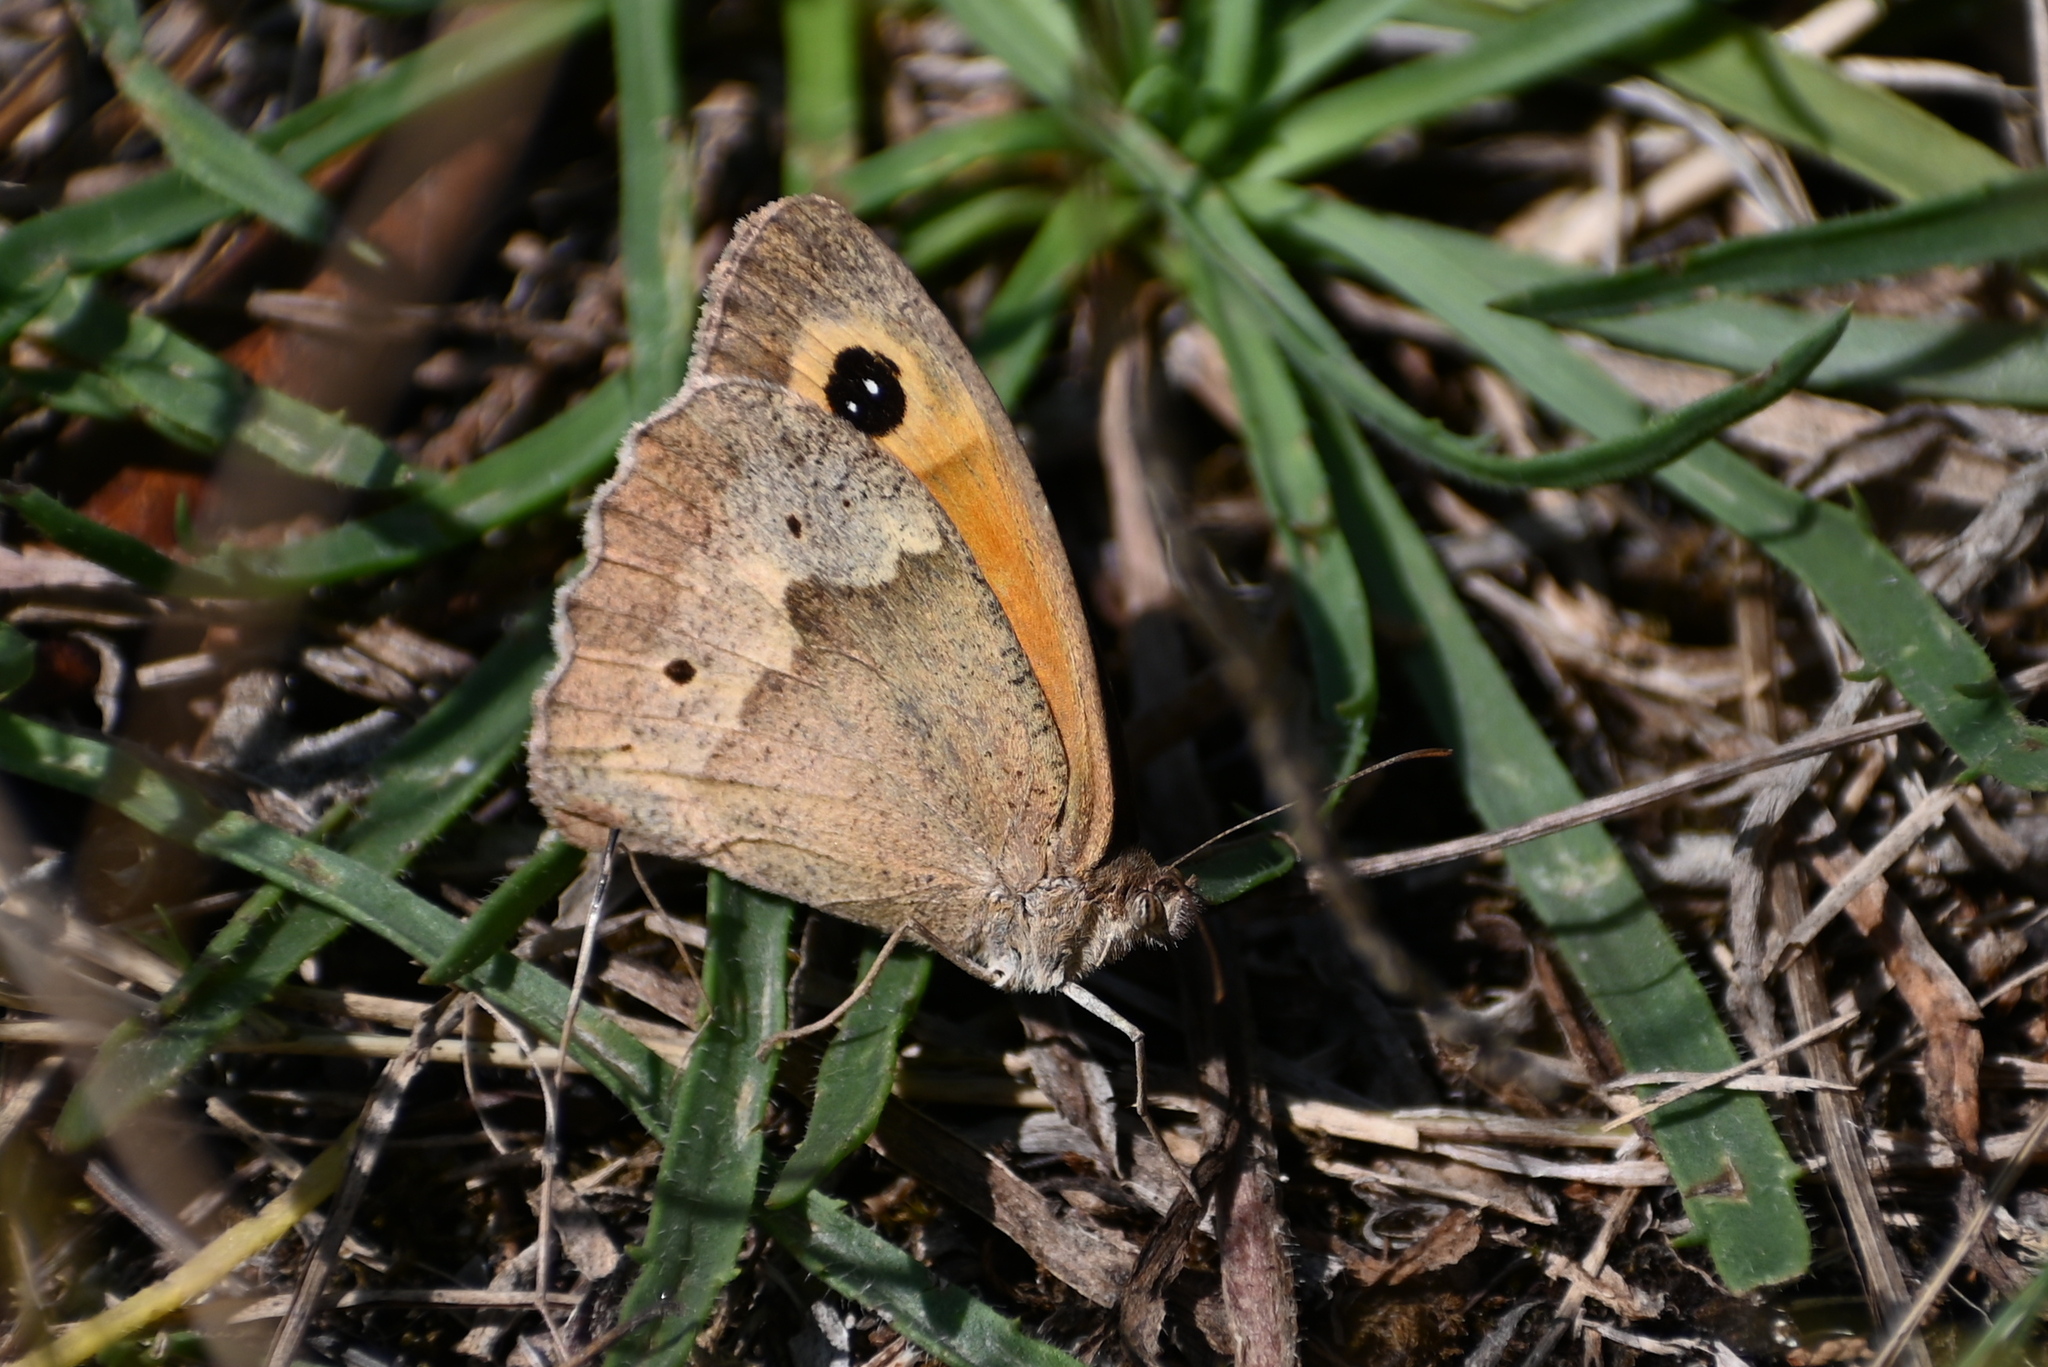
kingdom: Animalia
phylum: Arthropoda
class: Insecta
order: Lepidoptera
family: Nymphalidae
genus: Maniola
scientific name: Maniola jurtina
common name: Meadow brown
